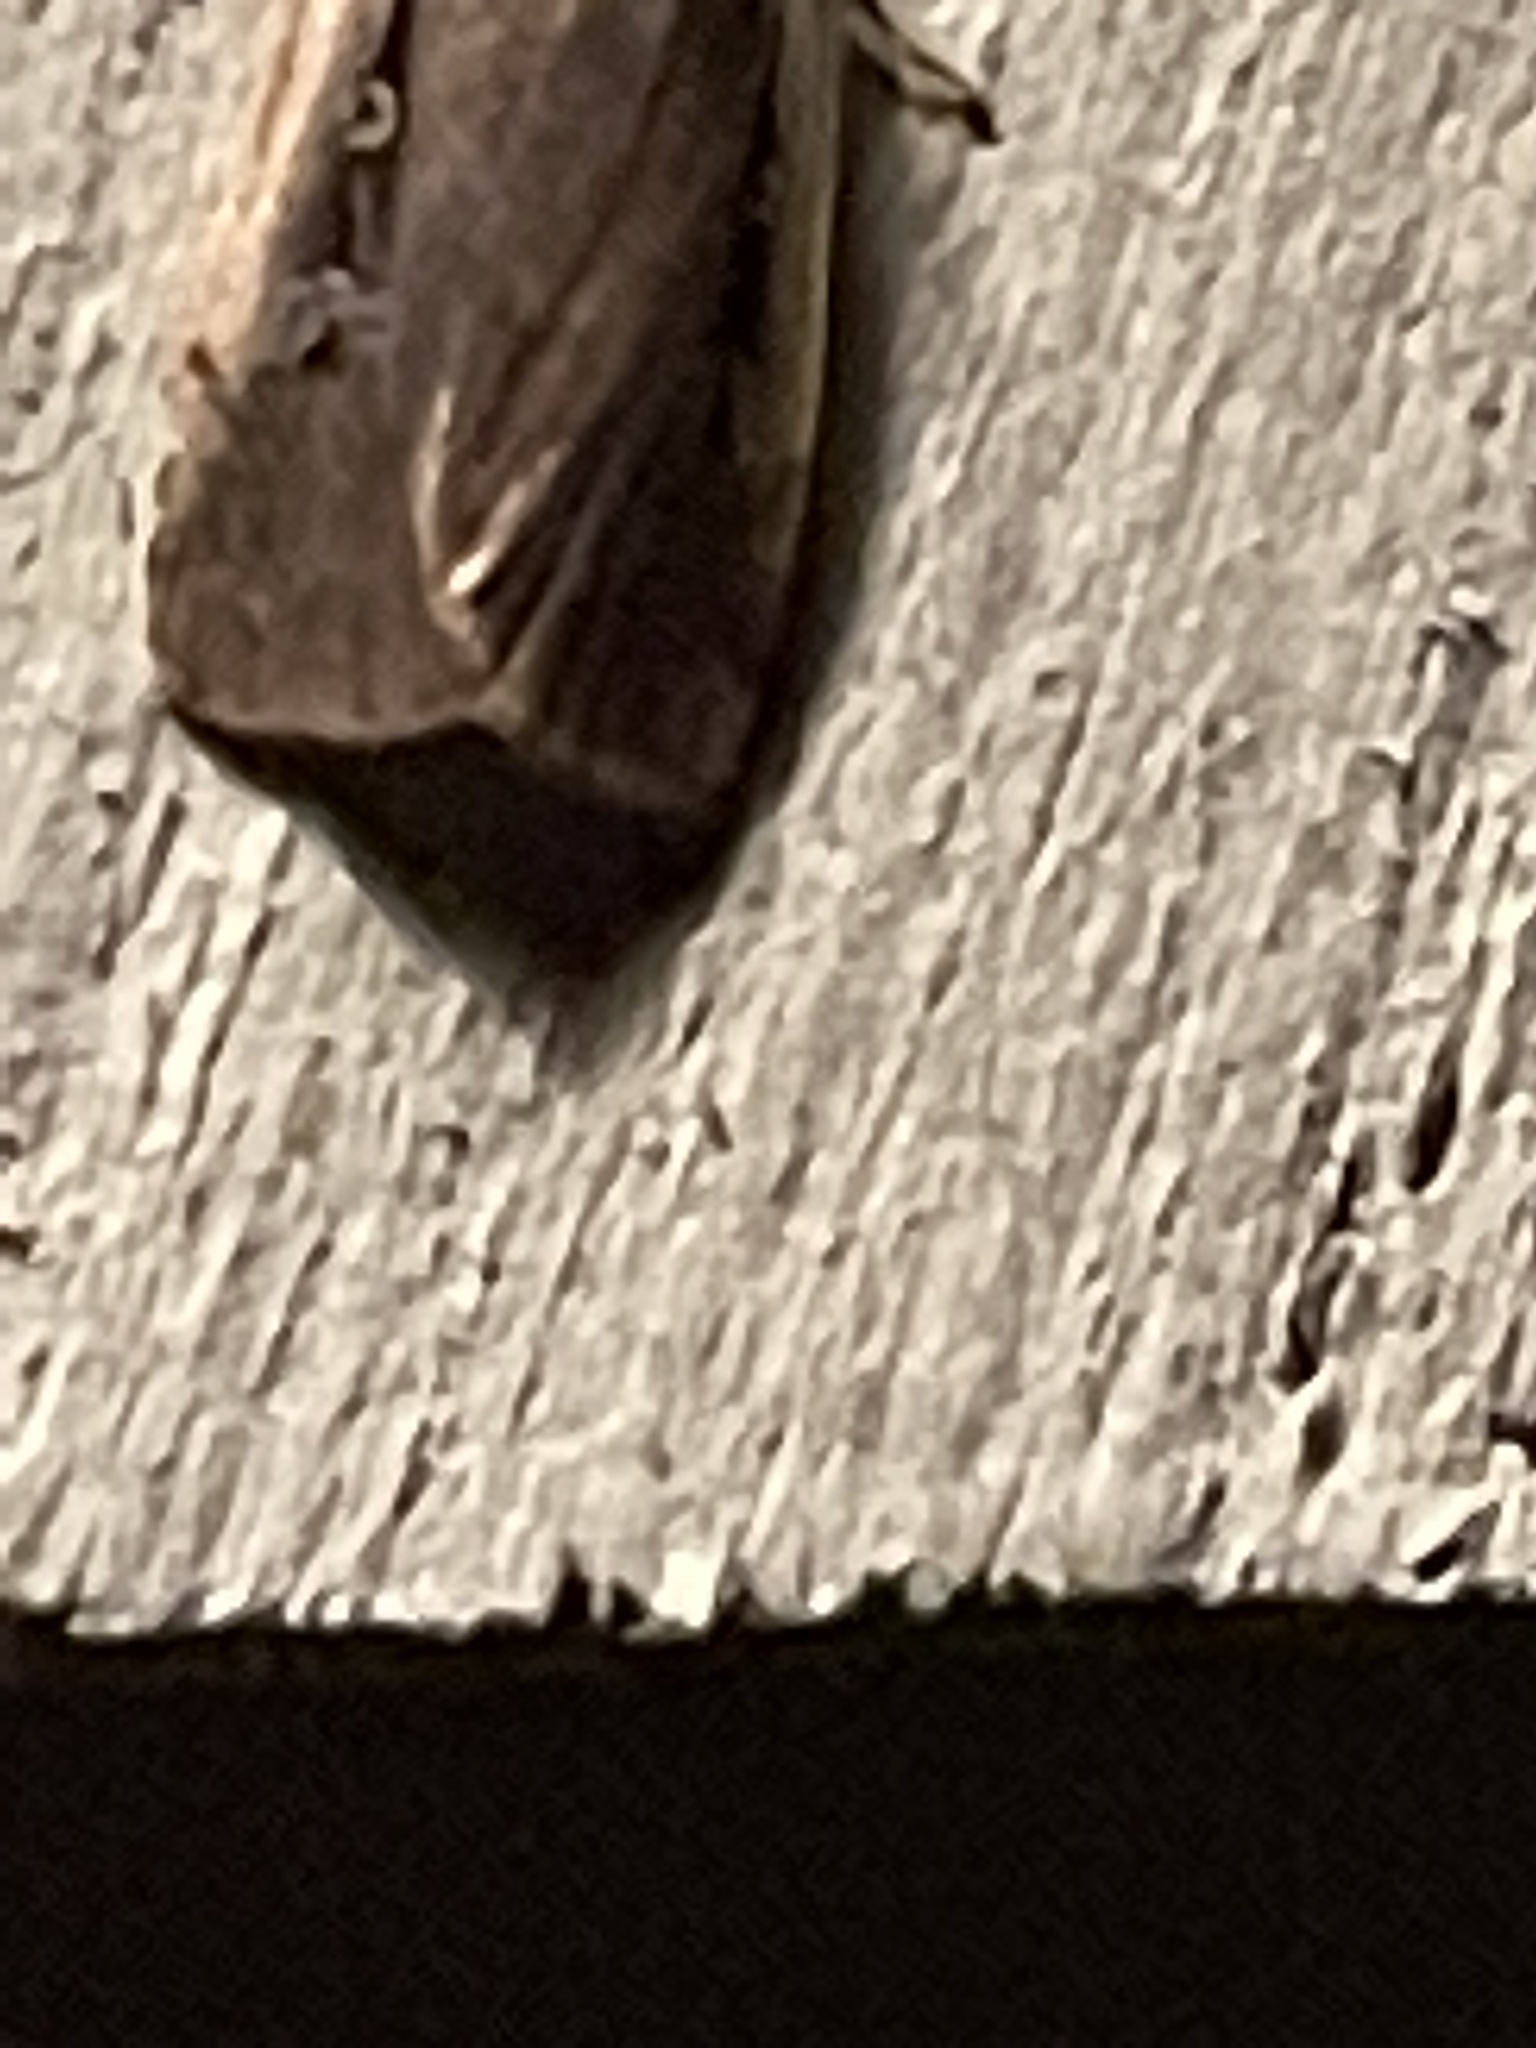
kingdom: Animalia
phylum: Arthropoda
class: Insecta
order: Lepidoptera
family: Noctuidae
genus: Ochropleura
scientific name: Ochropleura implecta
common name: Flame-shouldered dart
